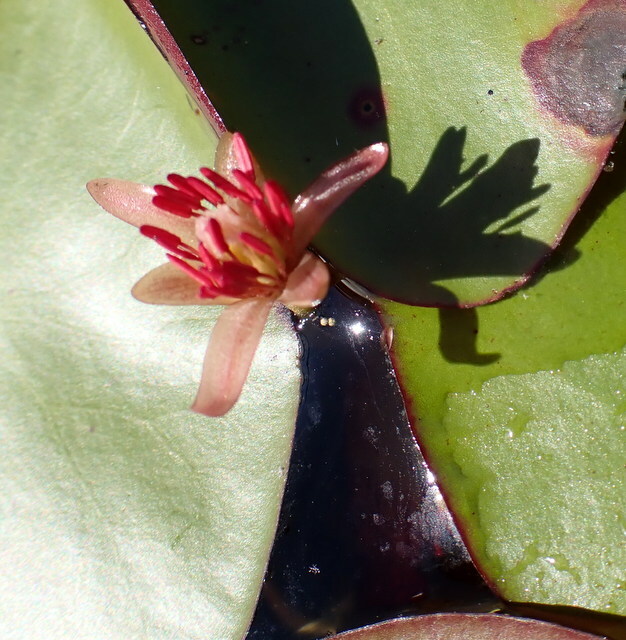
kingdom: Plantae
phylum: Tracheophyta
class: Magnoliopsida
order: Nymphaeales
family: Cabombaceae
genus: Brasenia
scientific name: Brasenia schreberi
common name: Water-shield
